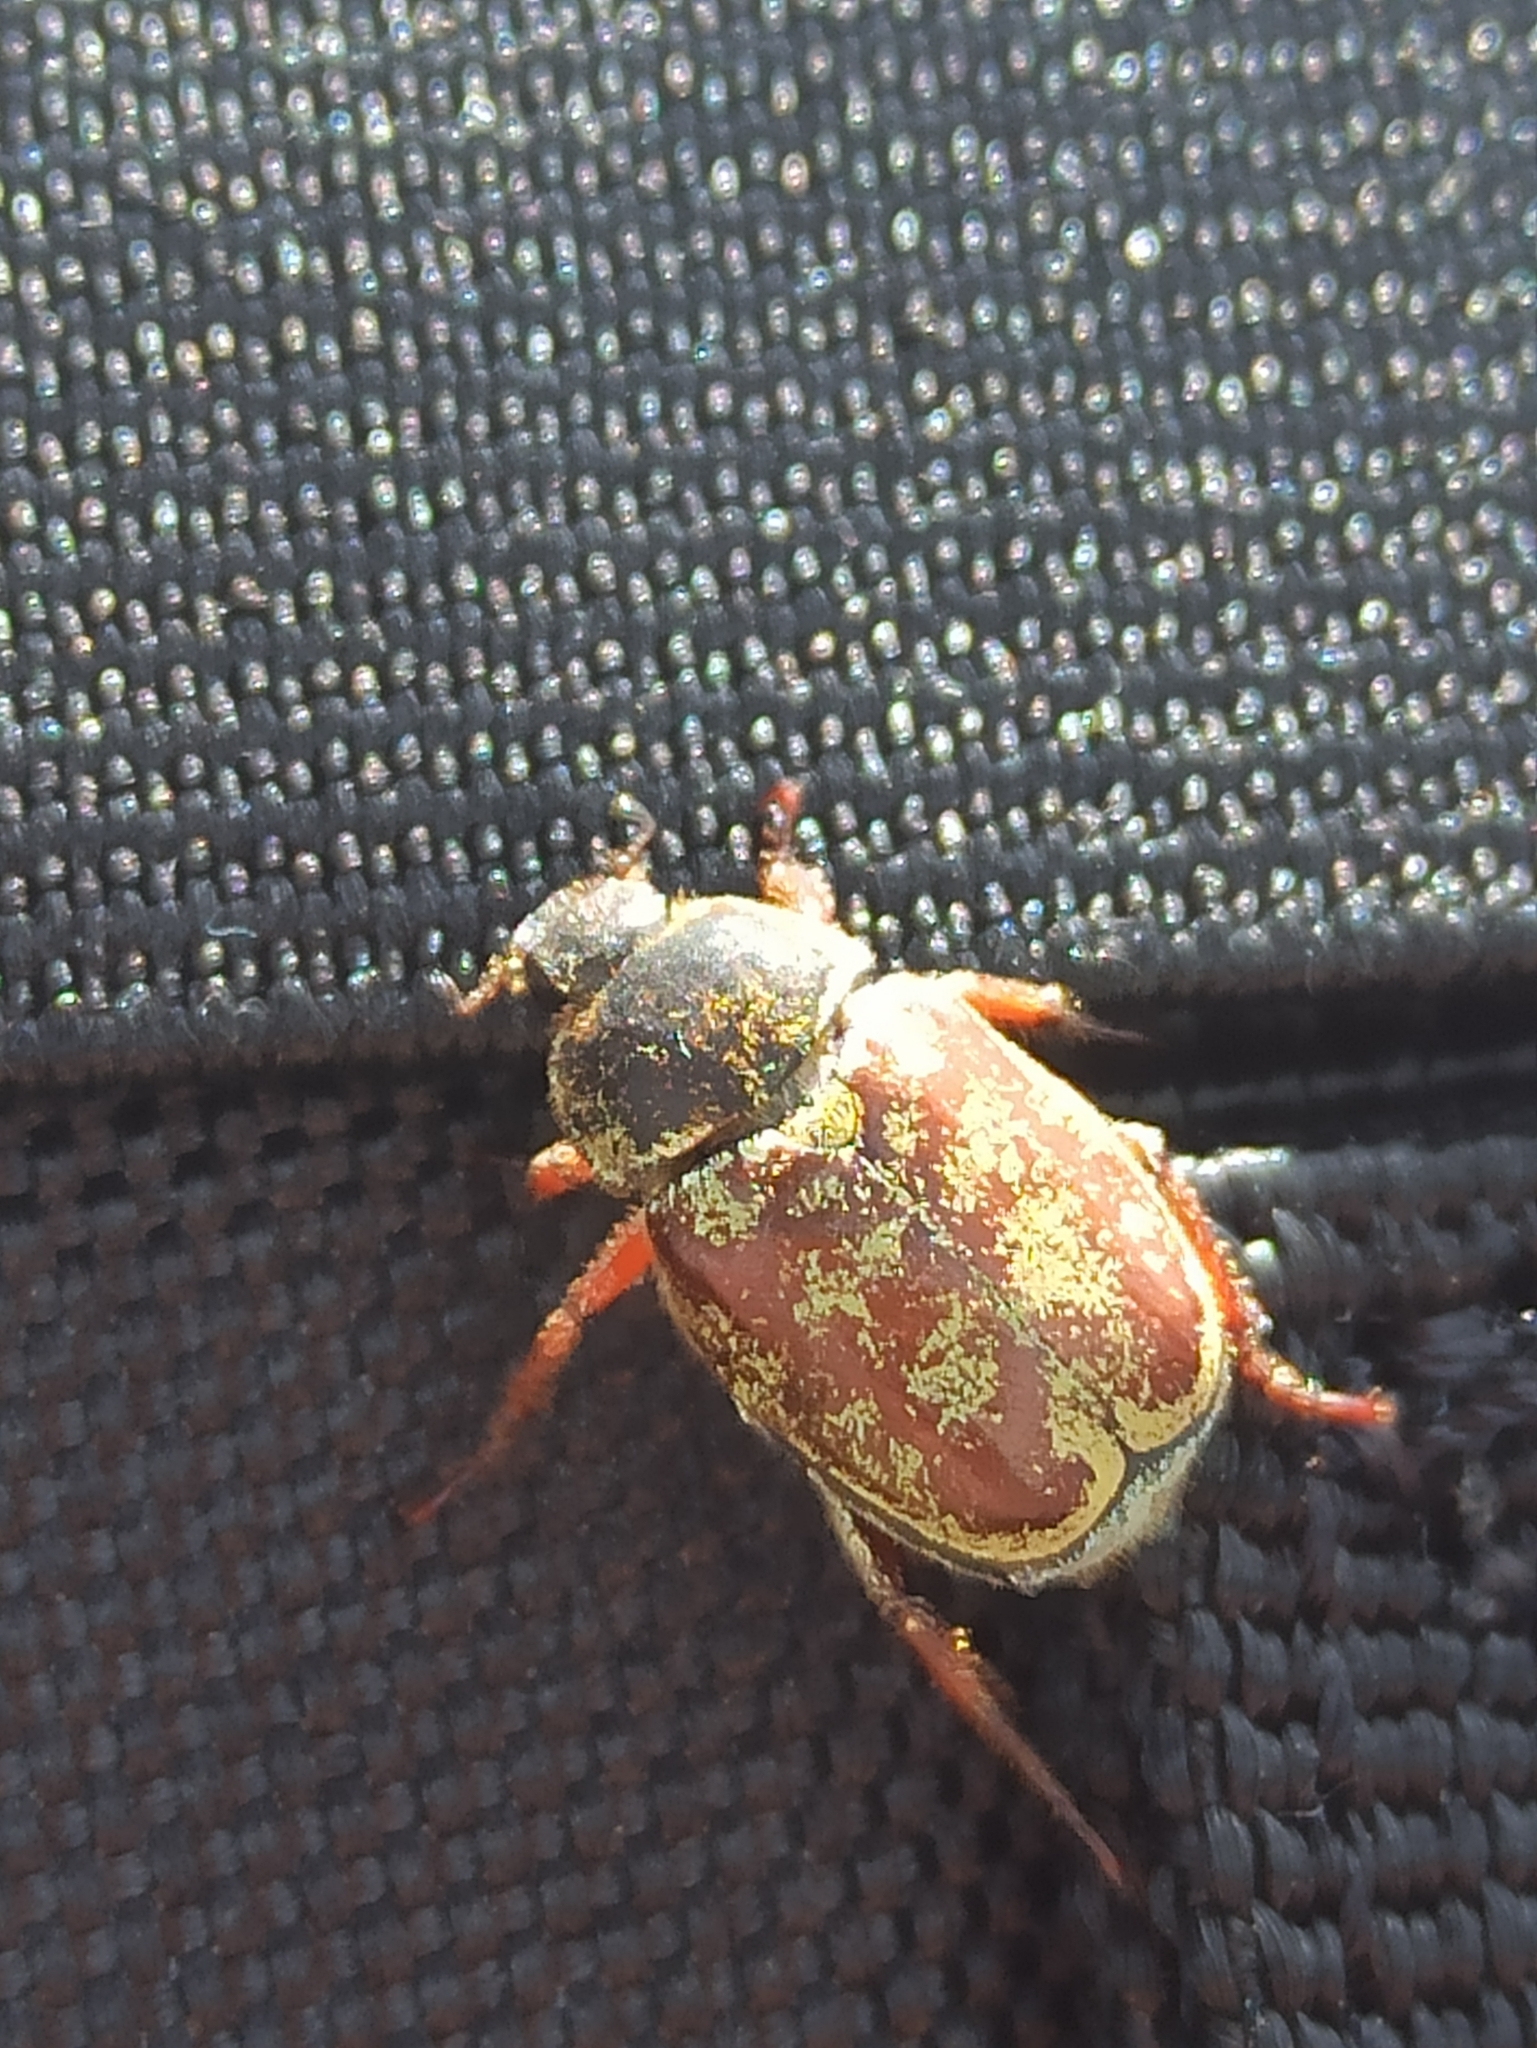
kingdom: Animalia
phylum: Arthropoda
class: Insecta
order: Coleoptera
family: Scarabaeidae
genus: Hoplia
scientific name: Hoplia argentea
